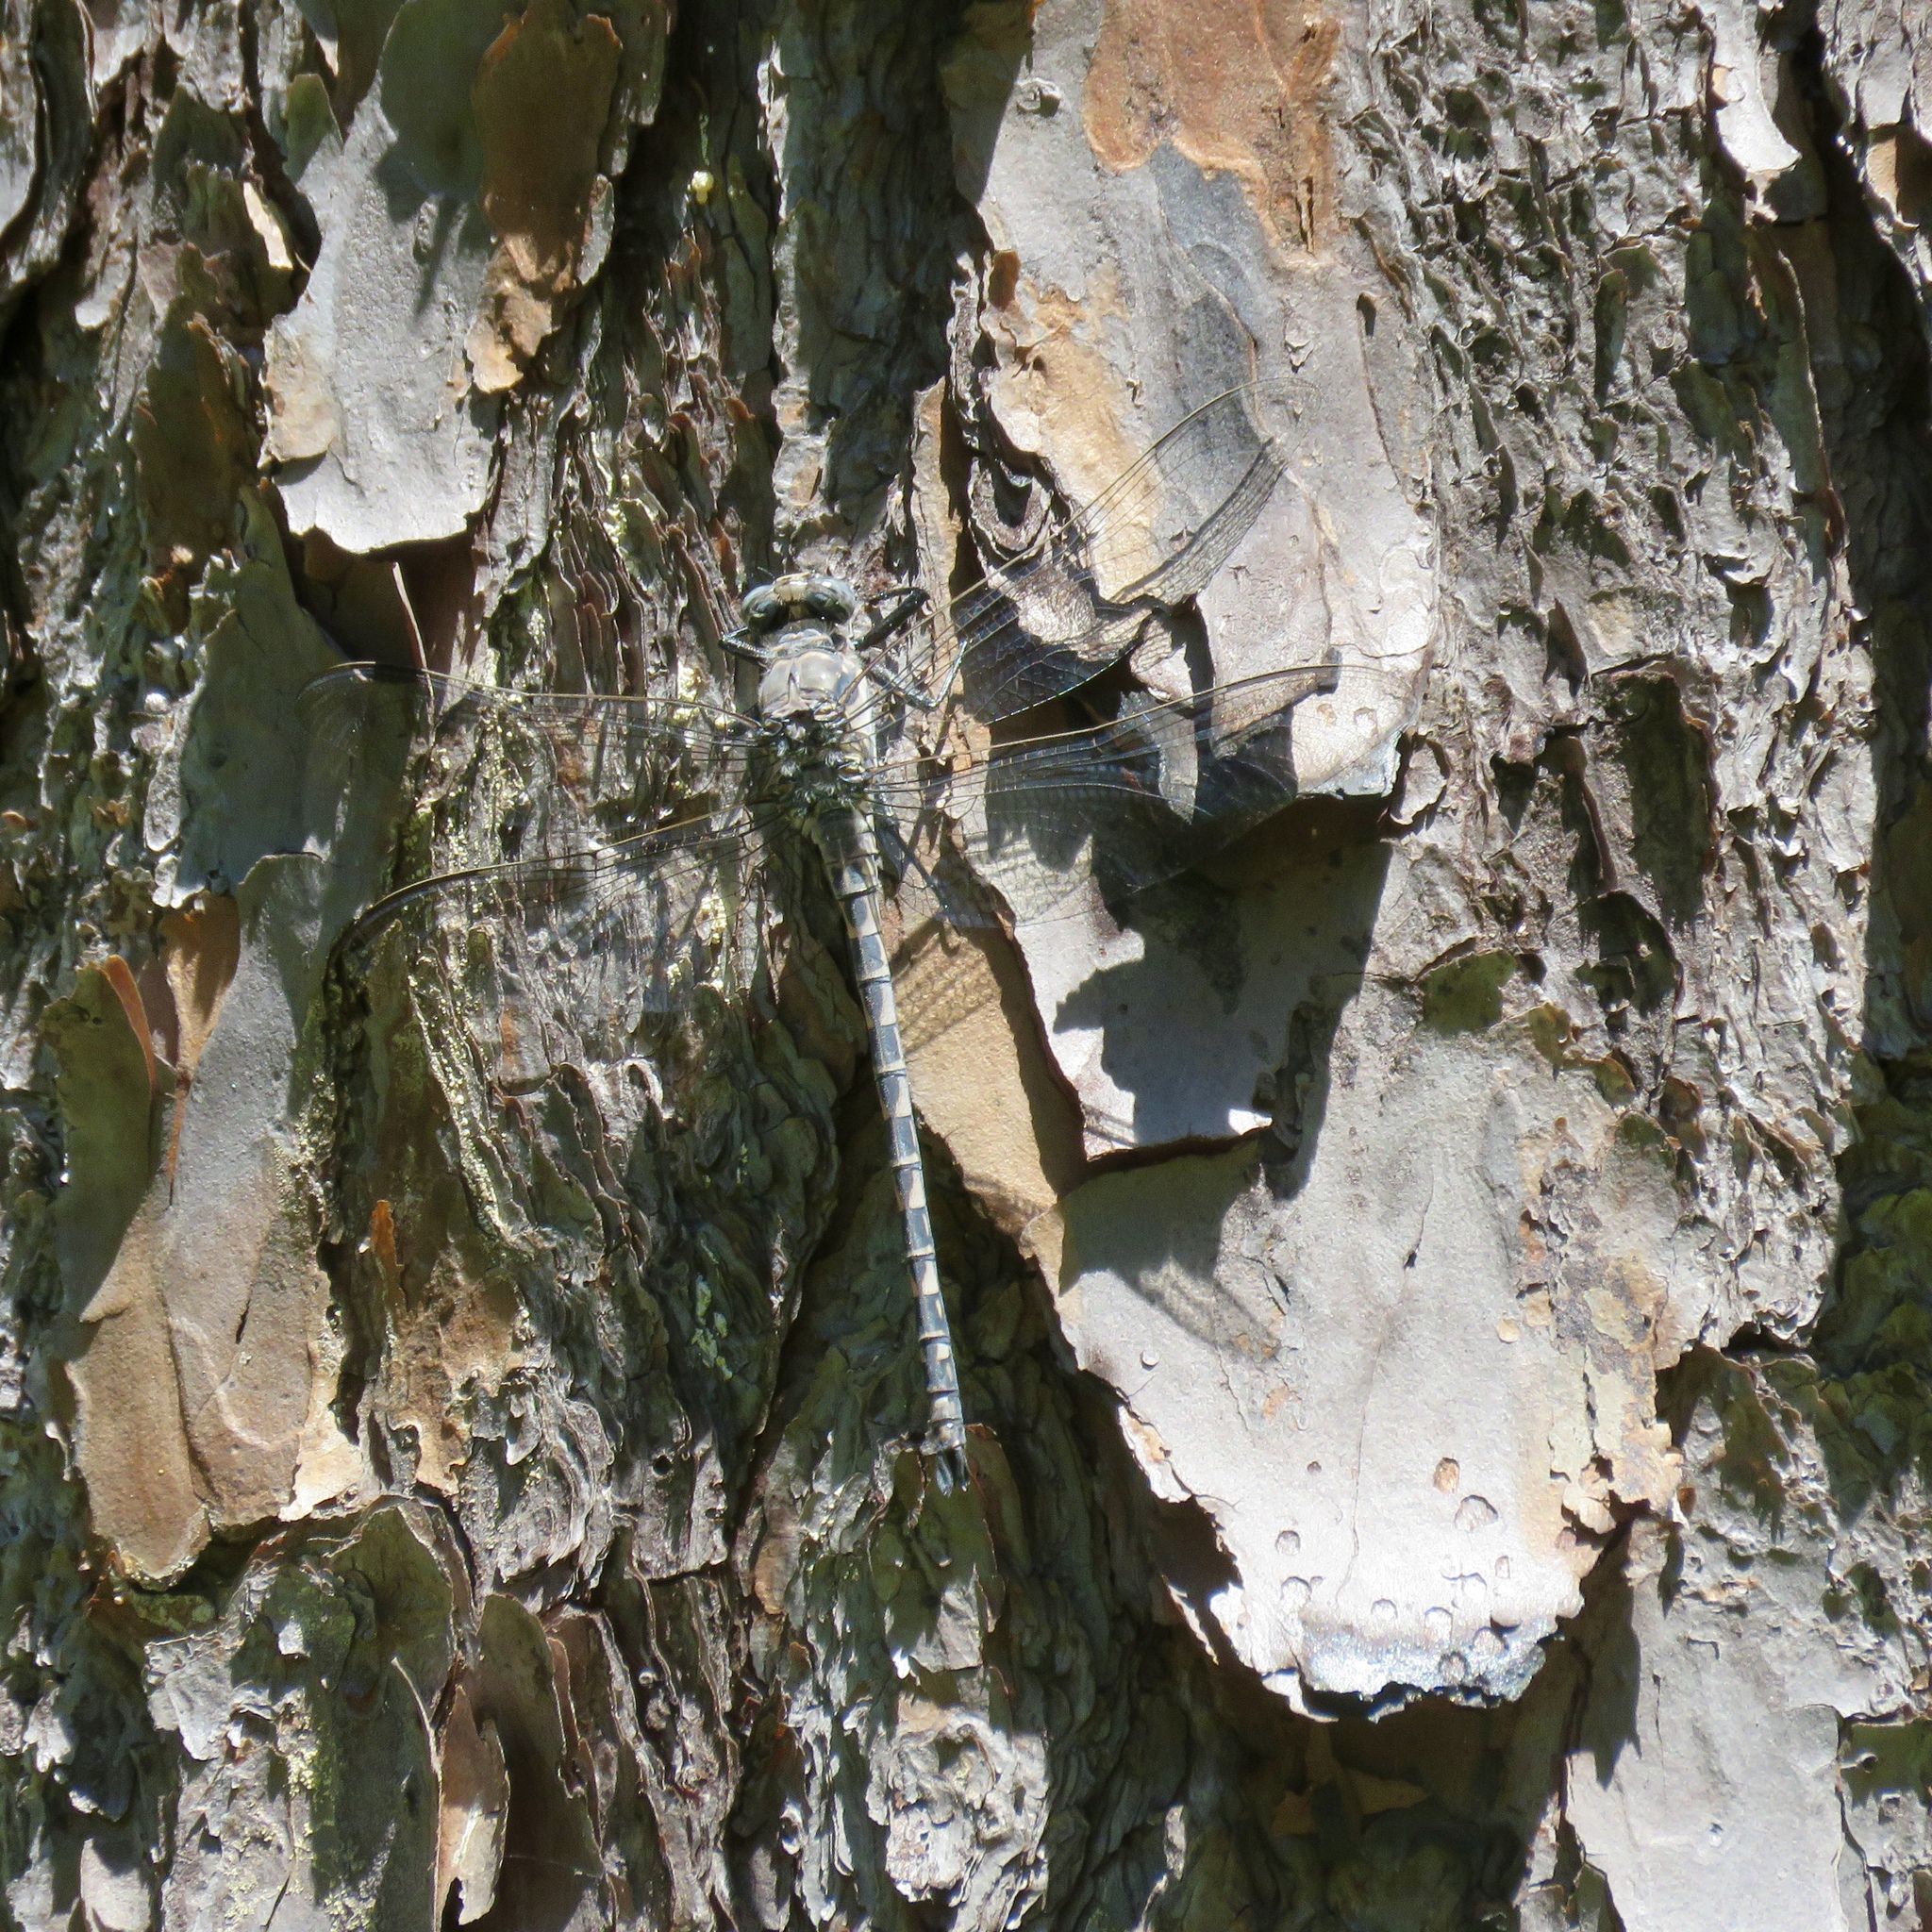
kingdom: Animalia
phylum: Arthropoda
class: Insecta
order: Odonata
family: Petaluridae
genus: Tachopteryx
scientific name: Tachopteryx thoreyi
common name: Gray petaltail
